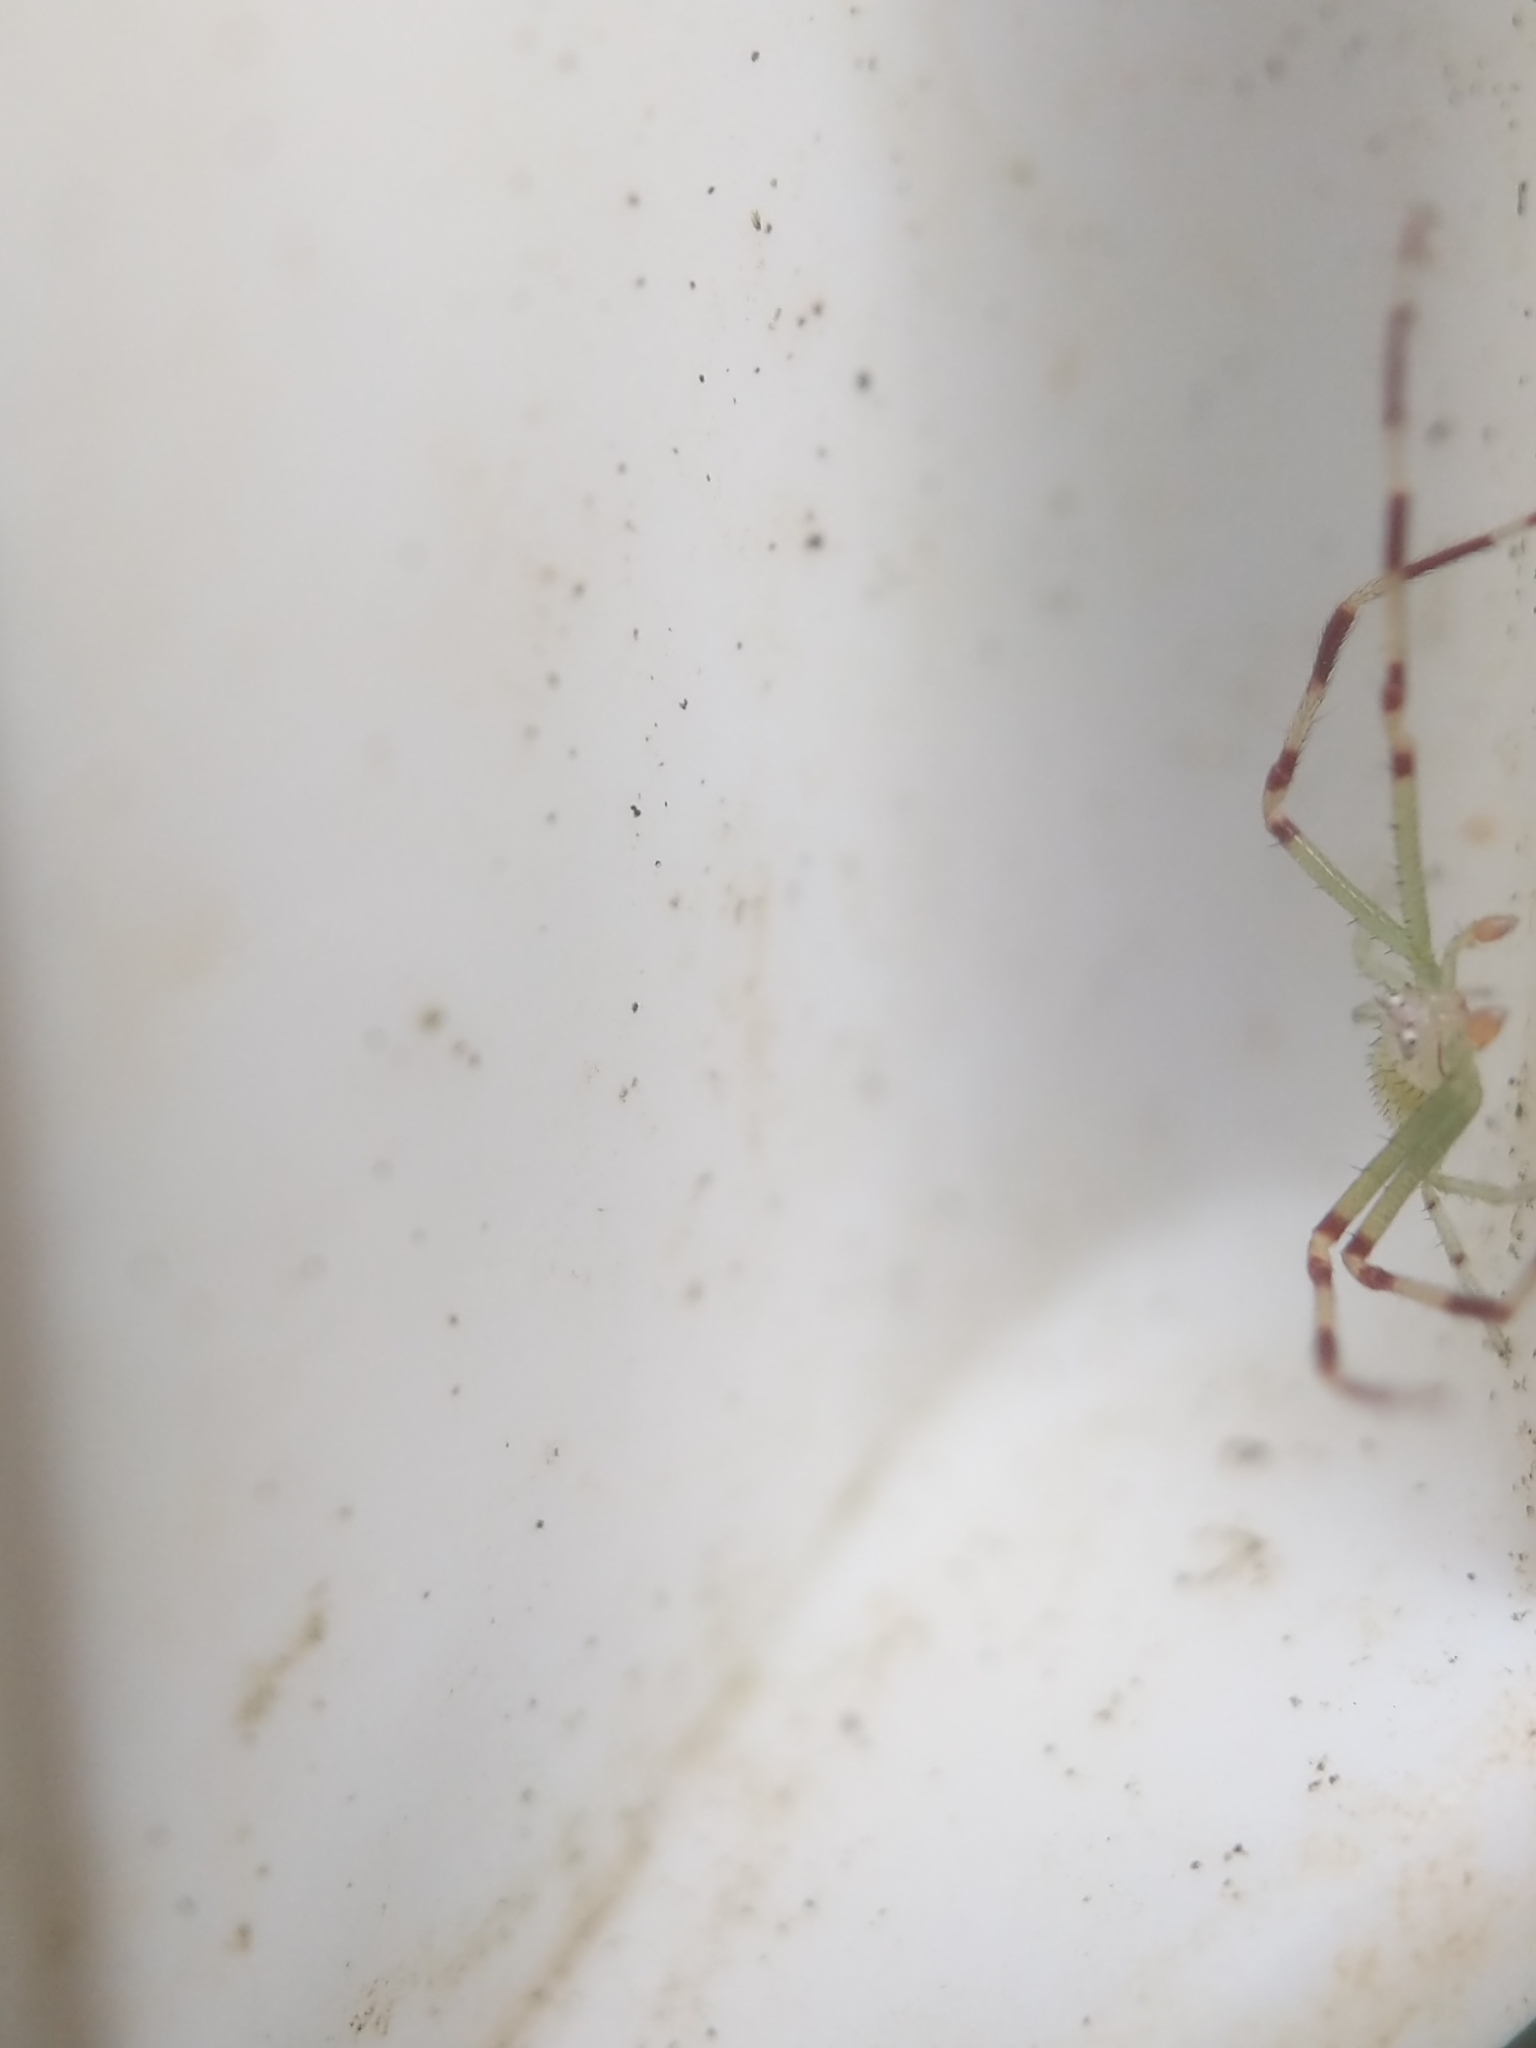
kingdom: Animalia
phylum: Arthropoda
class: Arachnida
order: Araneae
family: Thomisidae
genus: Misumessus
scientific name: Misumessus oblongus
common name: American green crab spider
